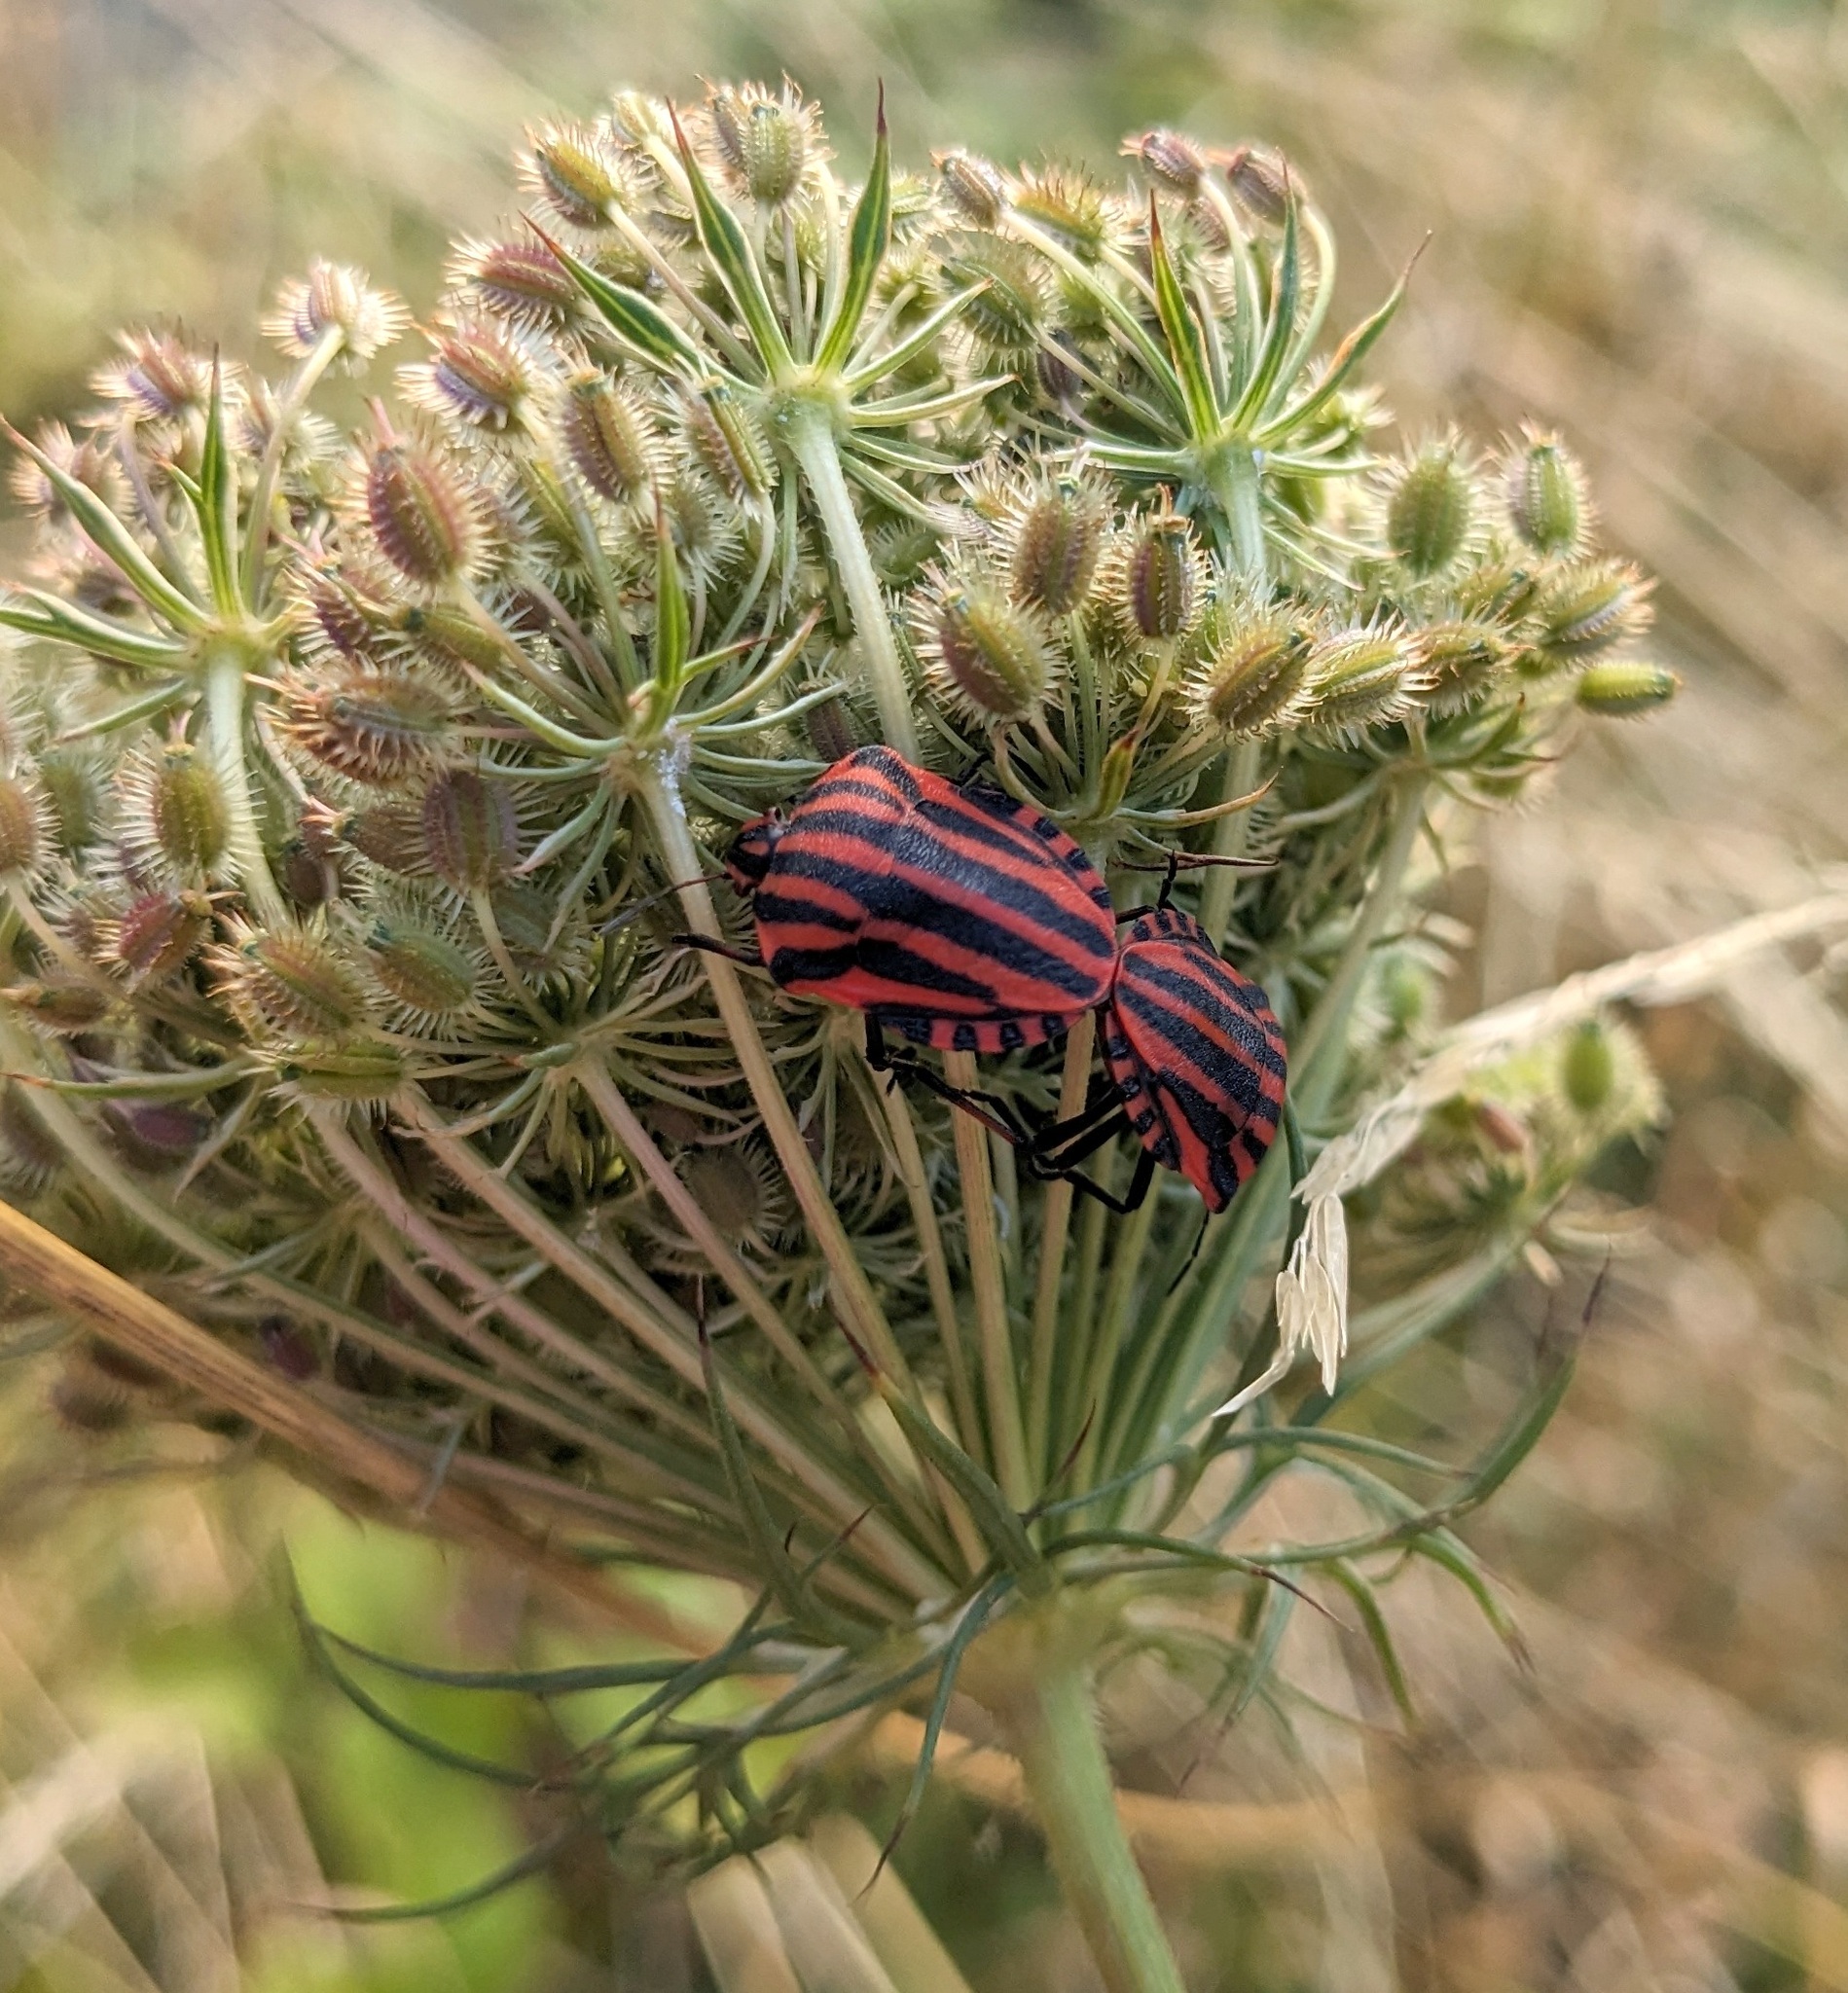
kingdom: Animalia
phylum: Arthropoda
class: Insecta
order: Hemiptera
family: Pentatomidae
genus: Graphosoma
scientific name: Graphosoma italicum
